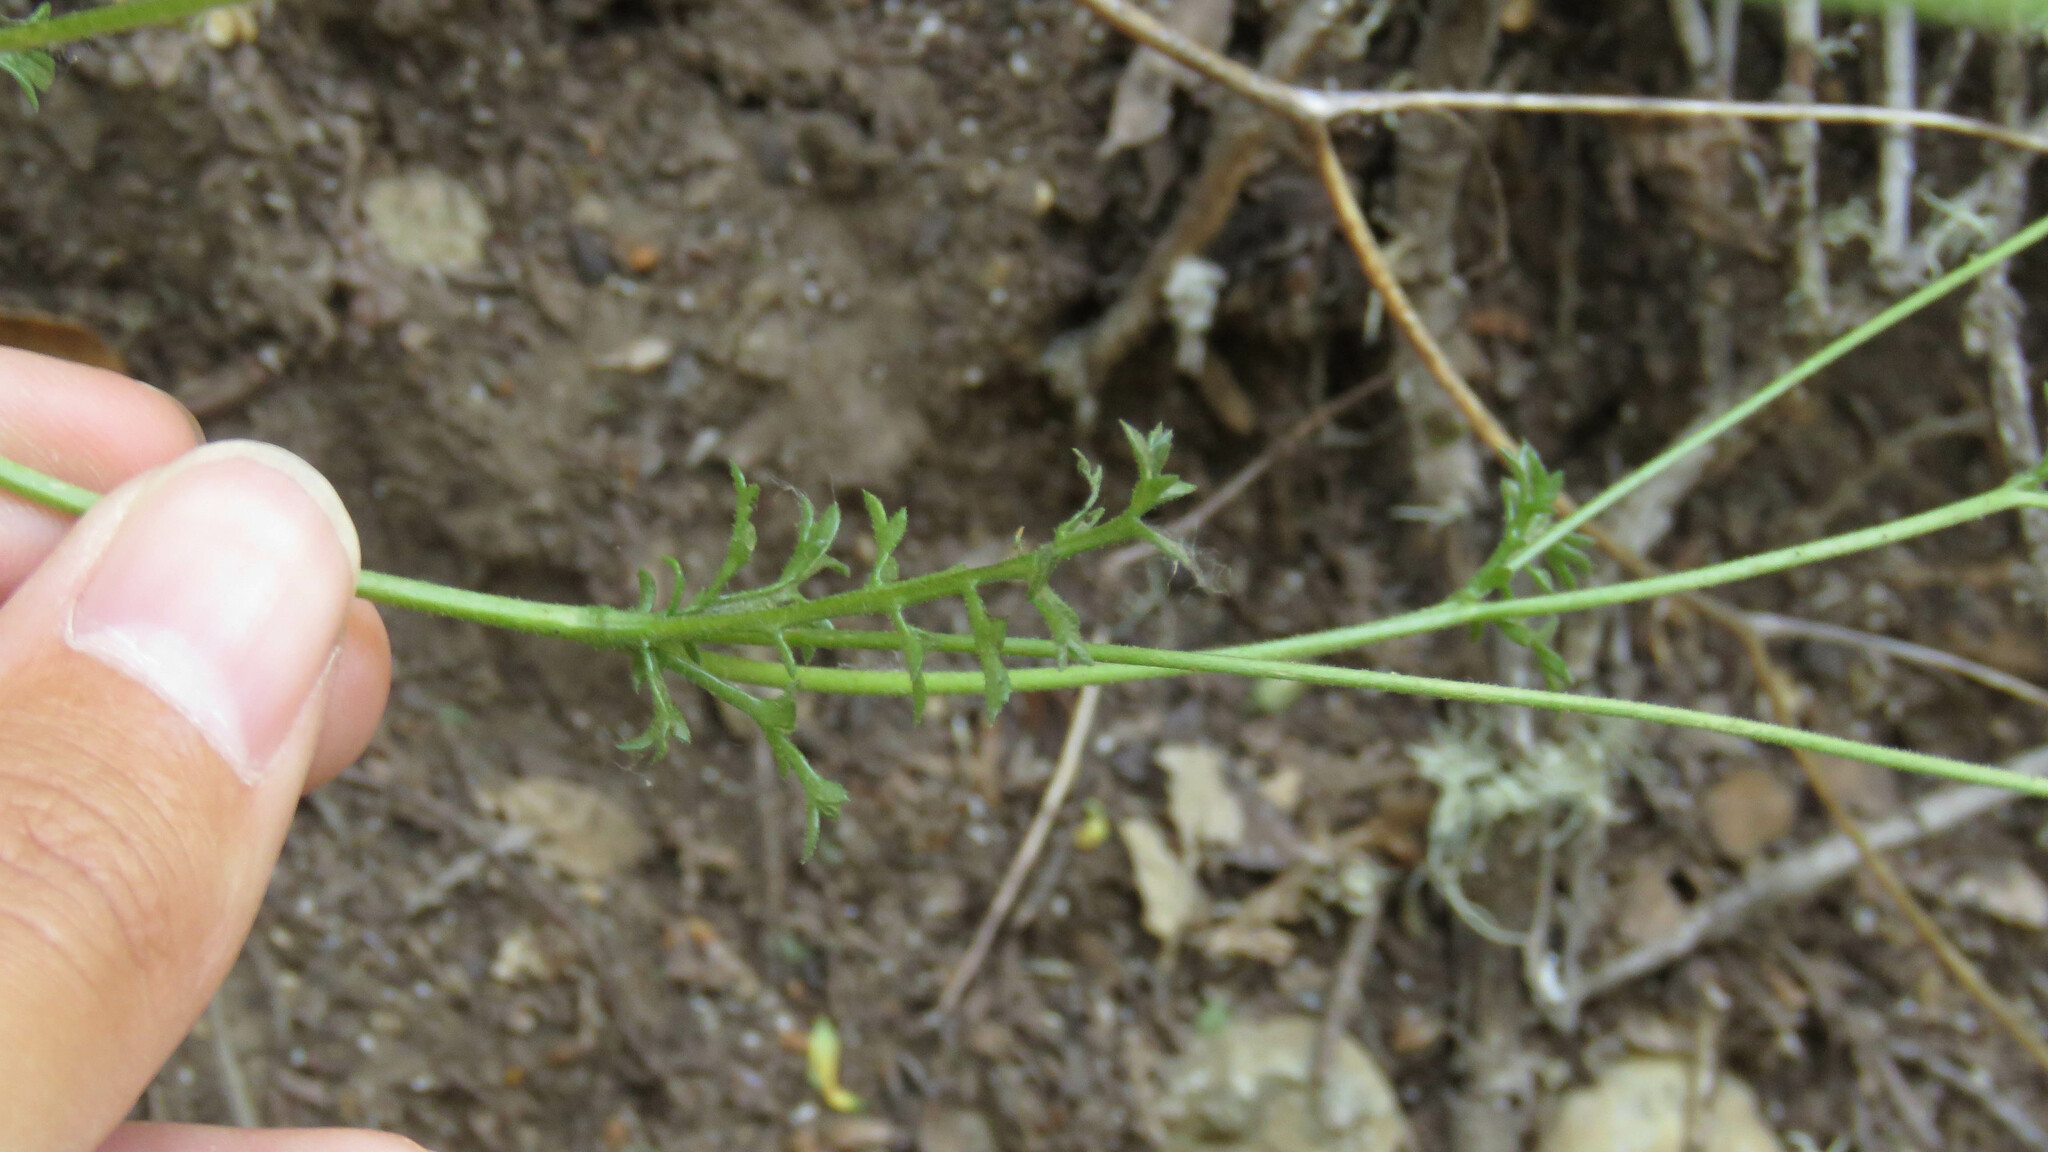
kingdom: Plantae
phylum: Tracheophyta
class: Magnoliopsida
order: Asterales
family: Asteraceae
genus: Leucheria
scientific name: Leucheria achillaeifolia
